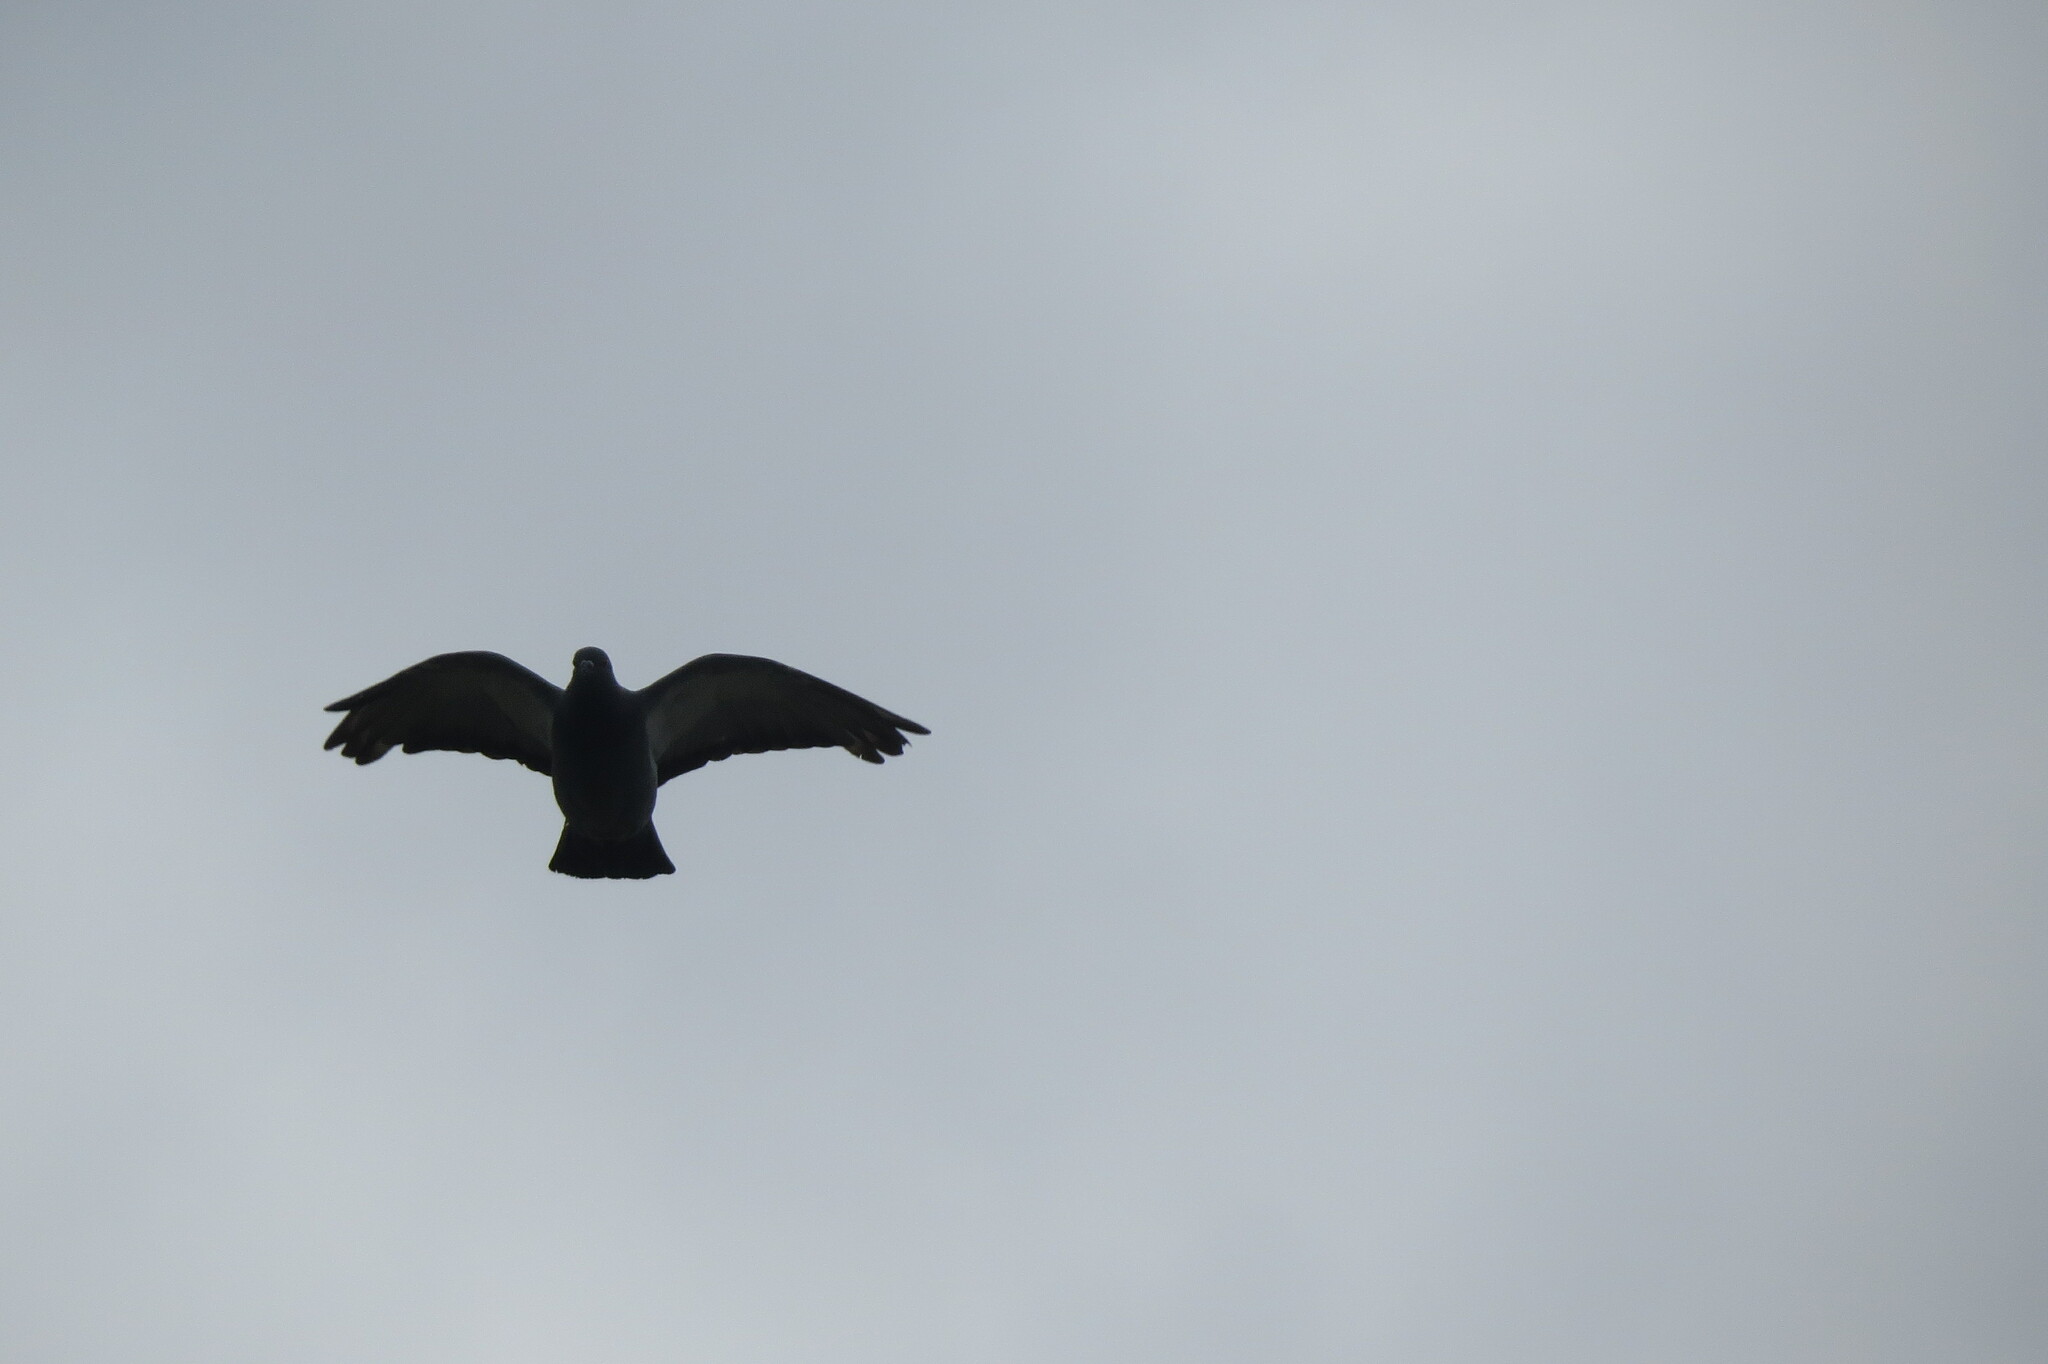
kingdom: Animalia
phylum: Chordata
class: Aves
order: Columbiformes
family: Columbidae
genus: Columba
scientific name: Columba livia
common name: Rock pigeon
